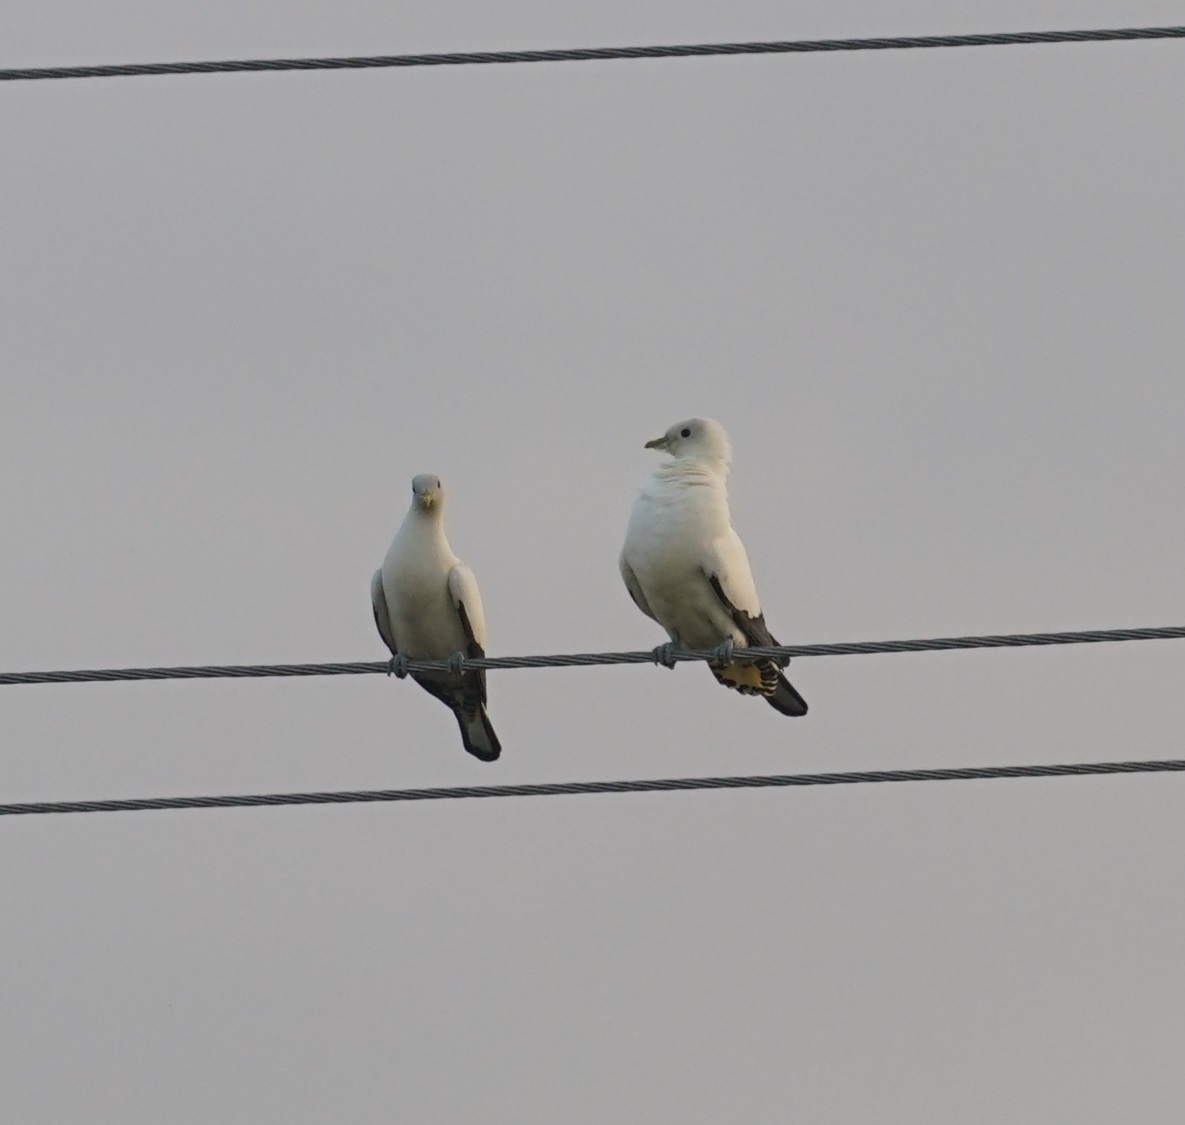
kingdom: Animalia
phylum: Chordata
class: Aves
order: Columbiformes
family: Columbidae
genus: Ducula
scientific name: Ducula spilorrhoa
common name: Torresian imperial pigeon
